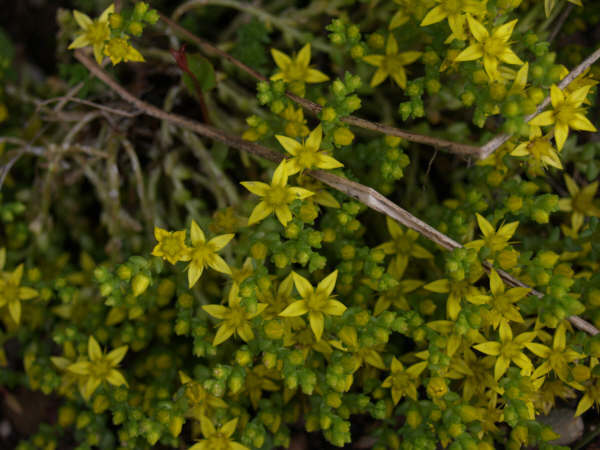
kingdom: Plantae
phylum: Tracheophyta
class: Magnoliopsida
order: Saxifragales
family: Crassulaceae
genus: Sedum
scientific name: Sedum acre
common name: Biting stonecrop
